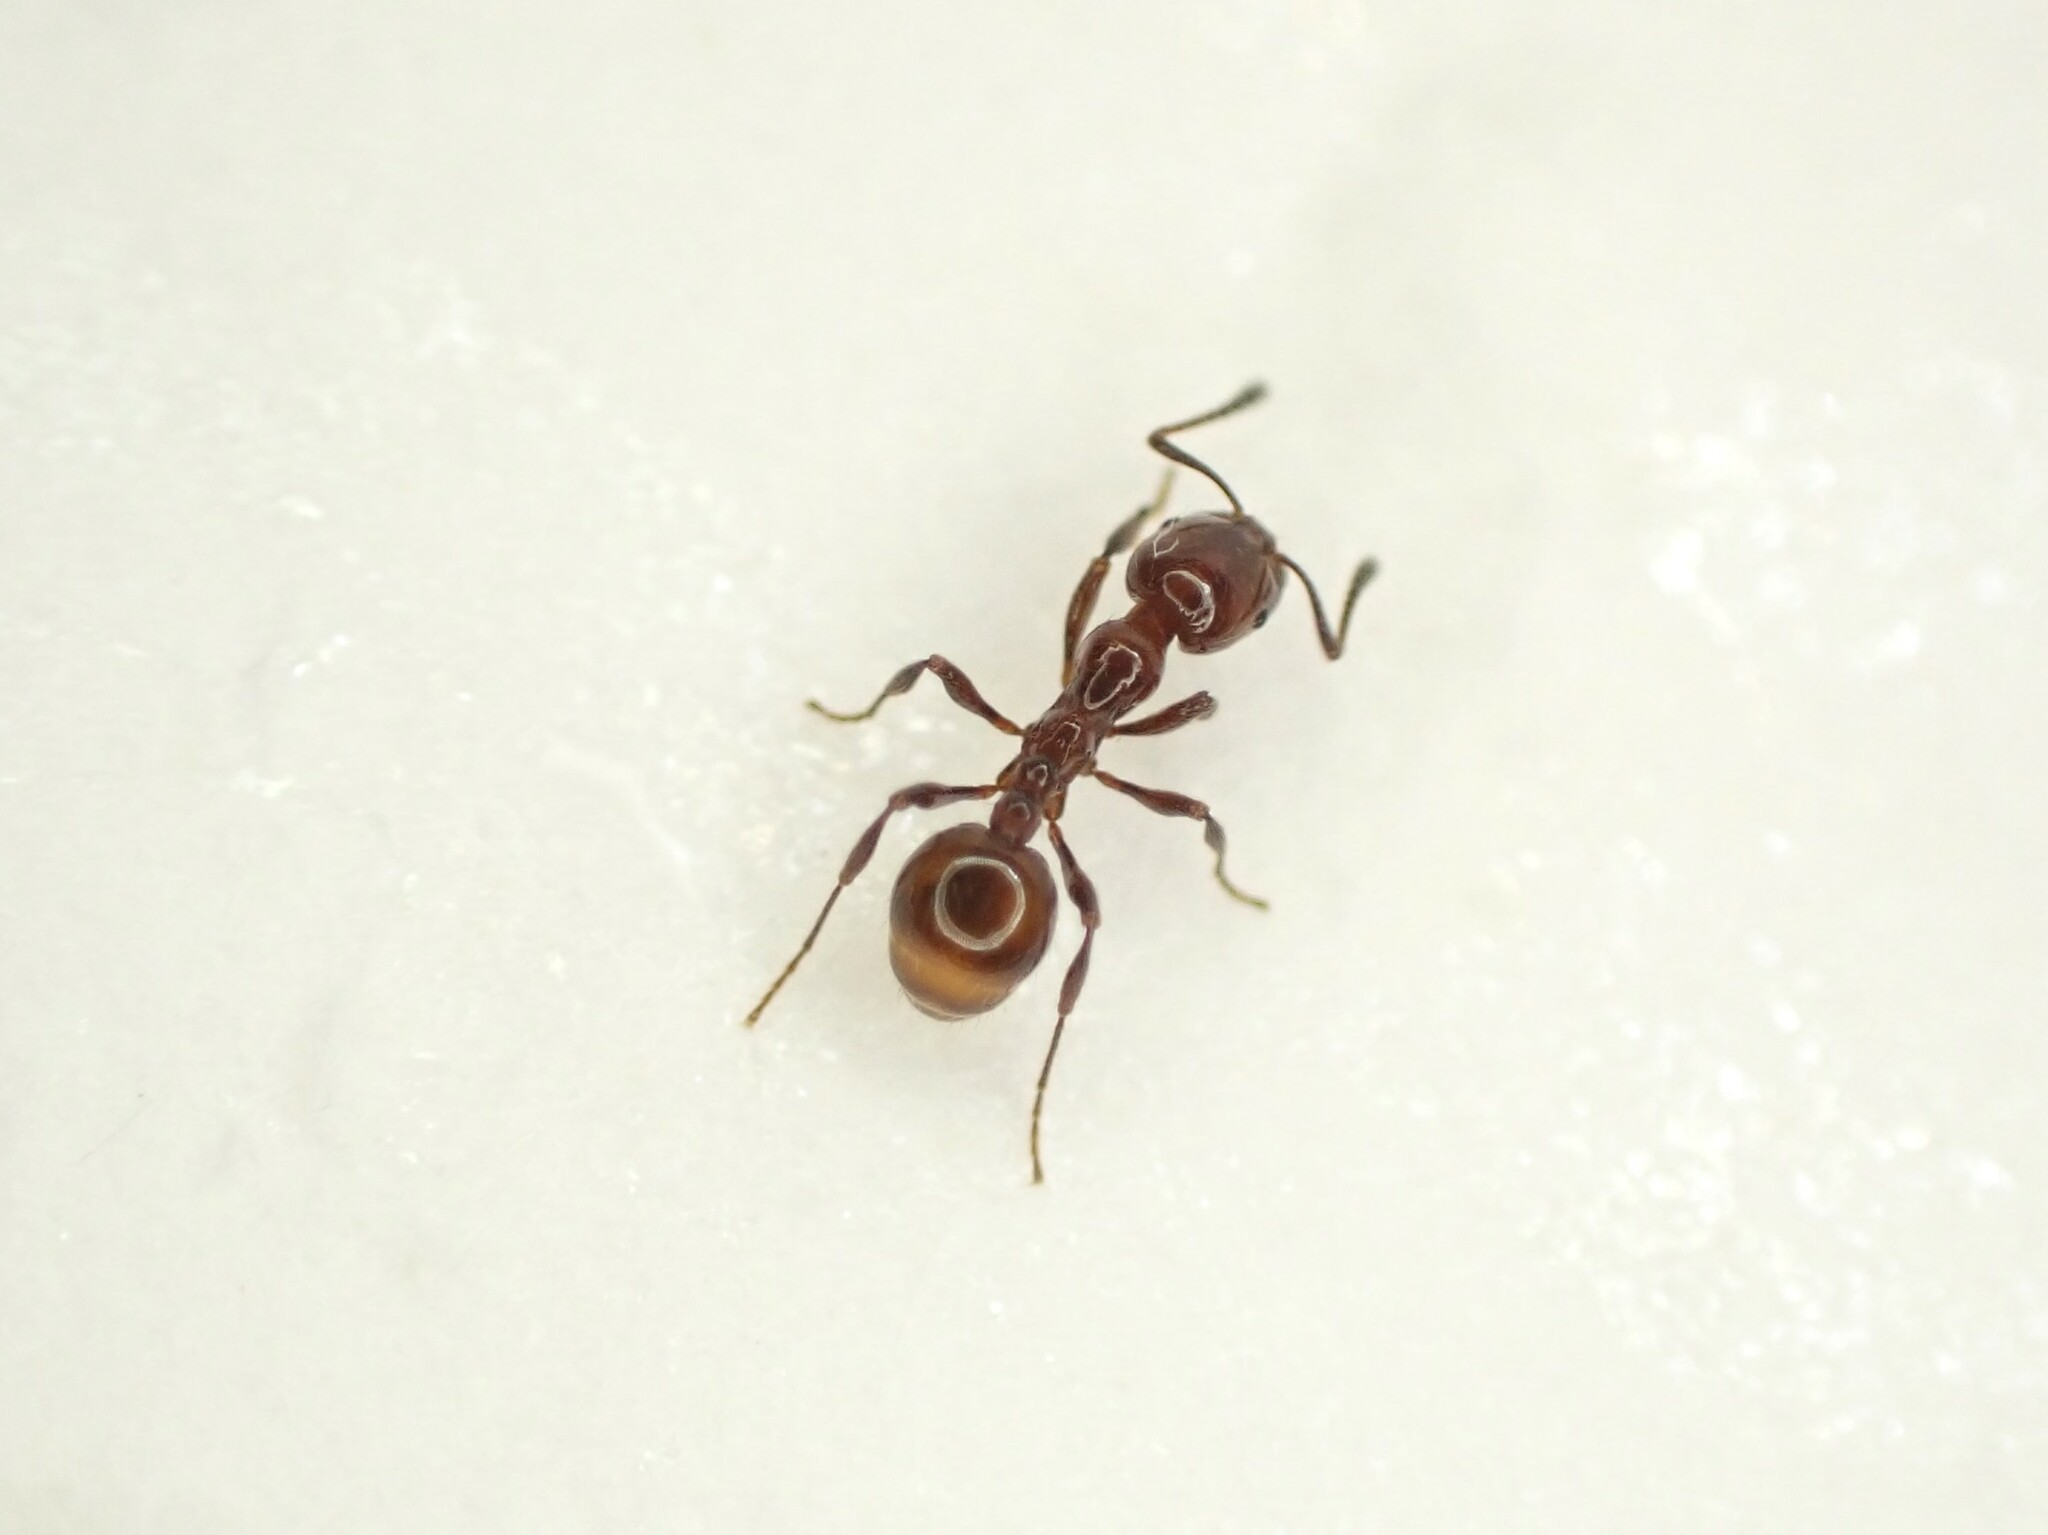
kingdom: Animalia
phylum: Arthropoda
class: Insecta
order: Hymenoptera
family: Formicidae
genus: Monomorium
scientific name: Monomorium antarcticum
